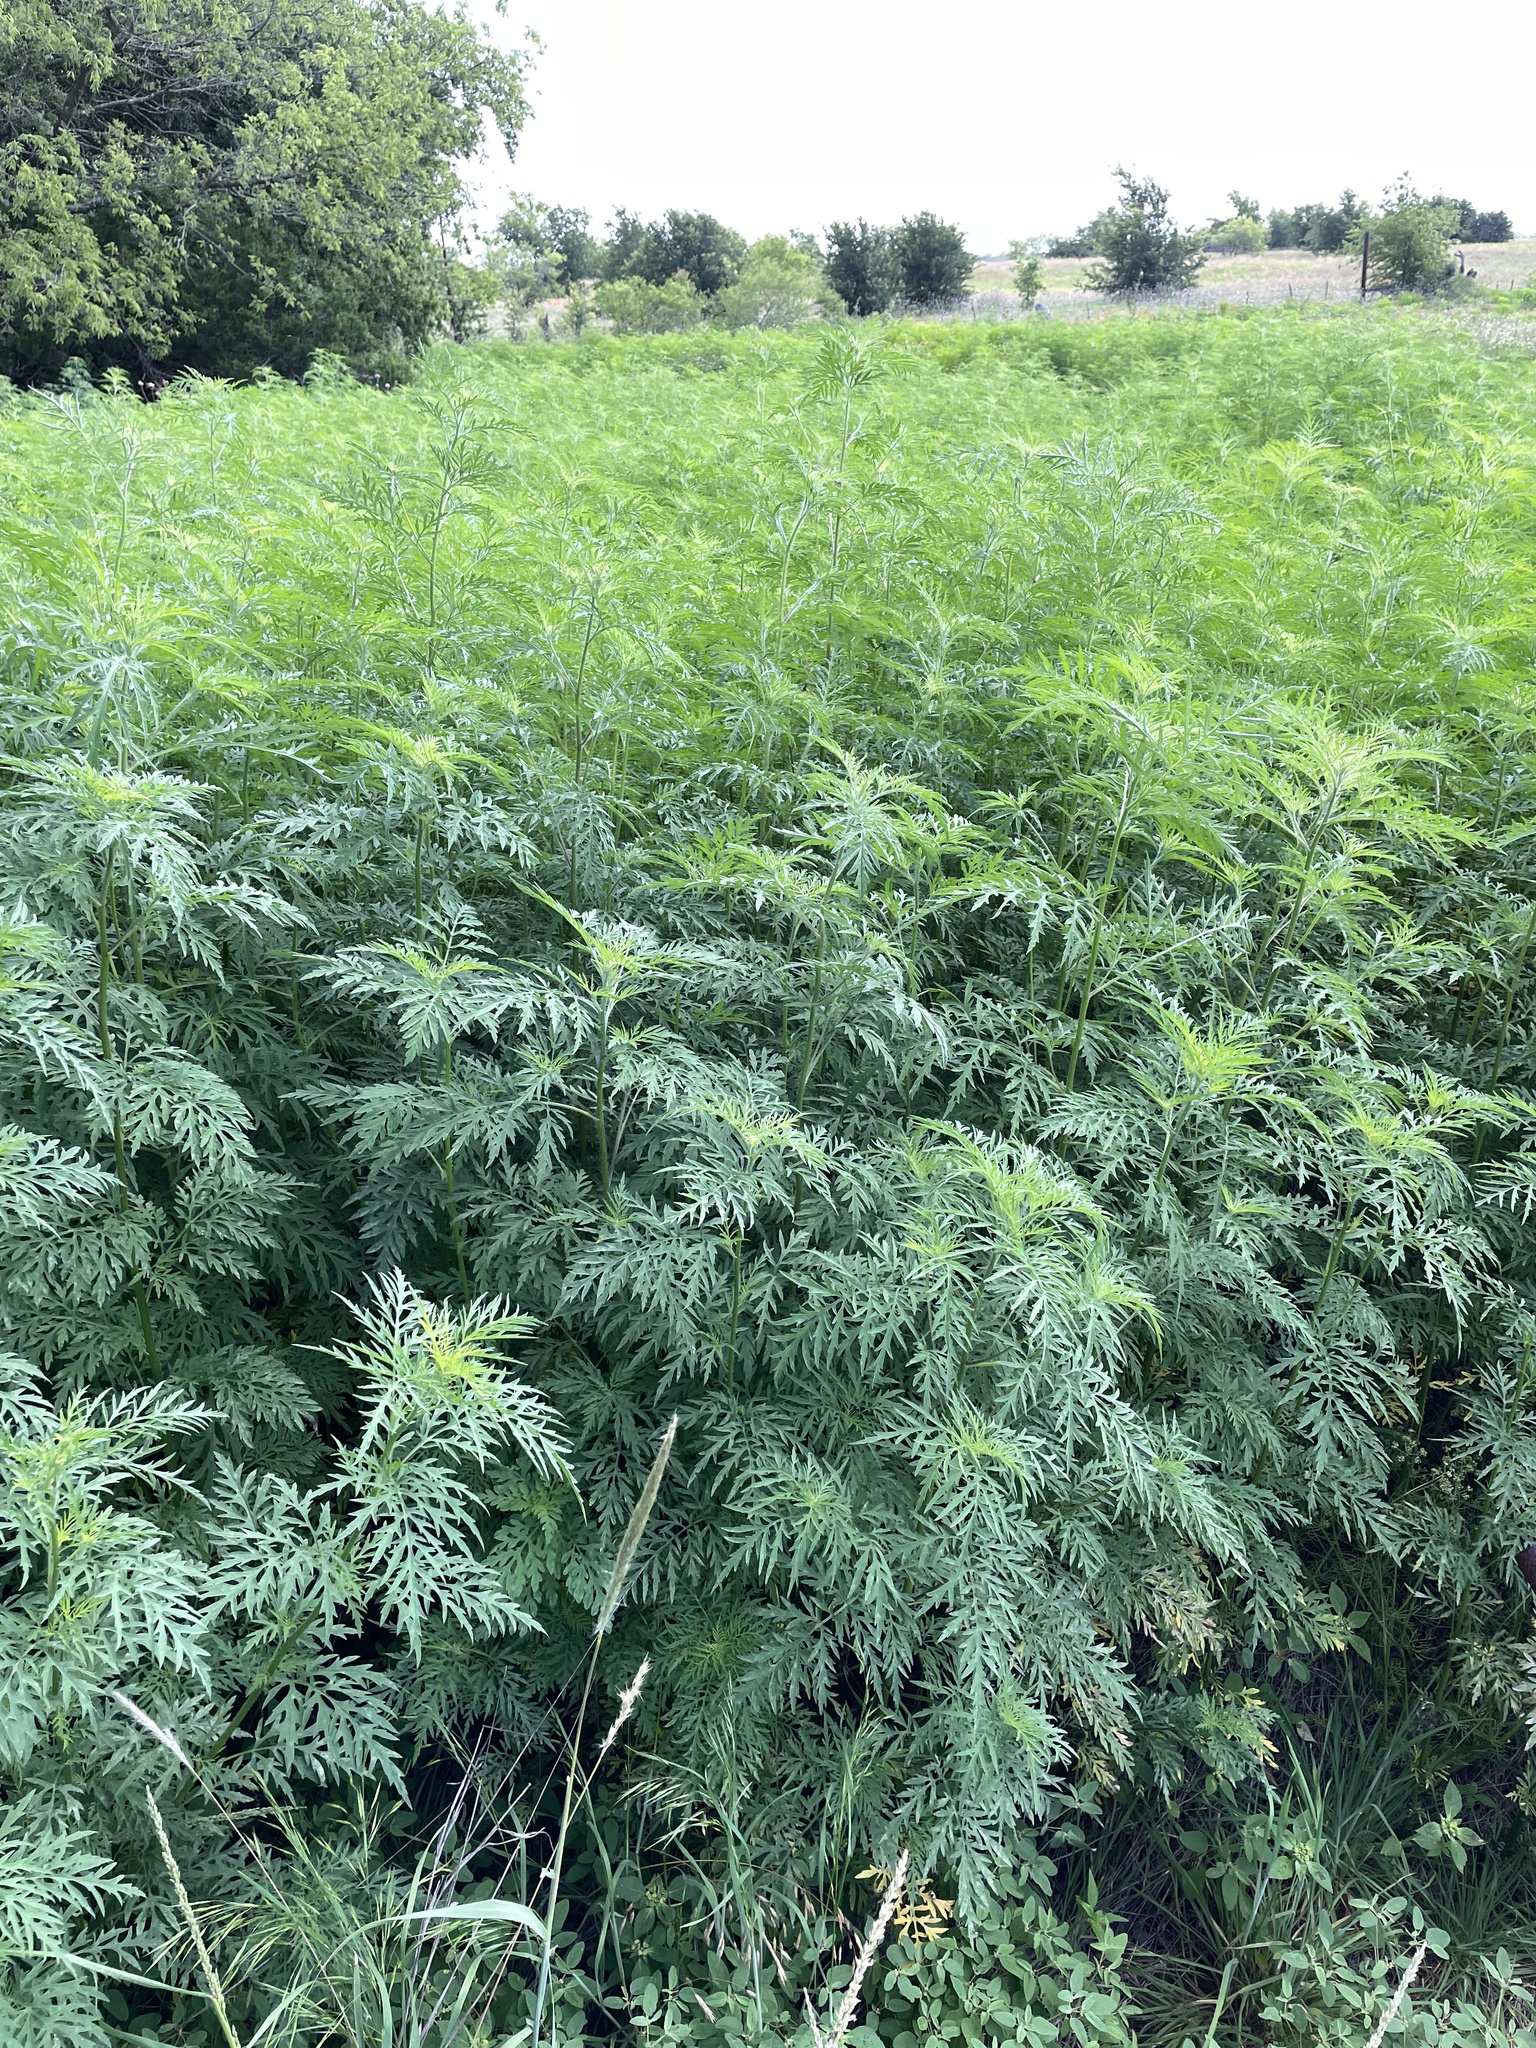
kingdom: Plantae
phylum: Tracheophyta
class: Magnoliopsida
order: Asterales
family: Asteraceae
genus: Ambrosia
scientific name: Ambrosia artemisiifolia
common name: Annual ragweed
